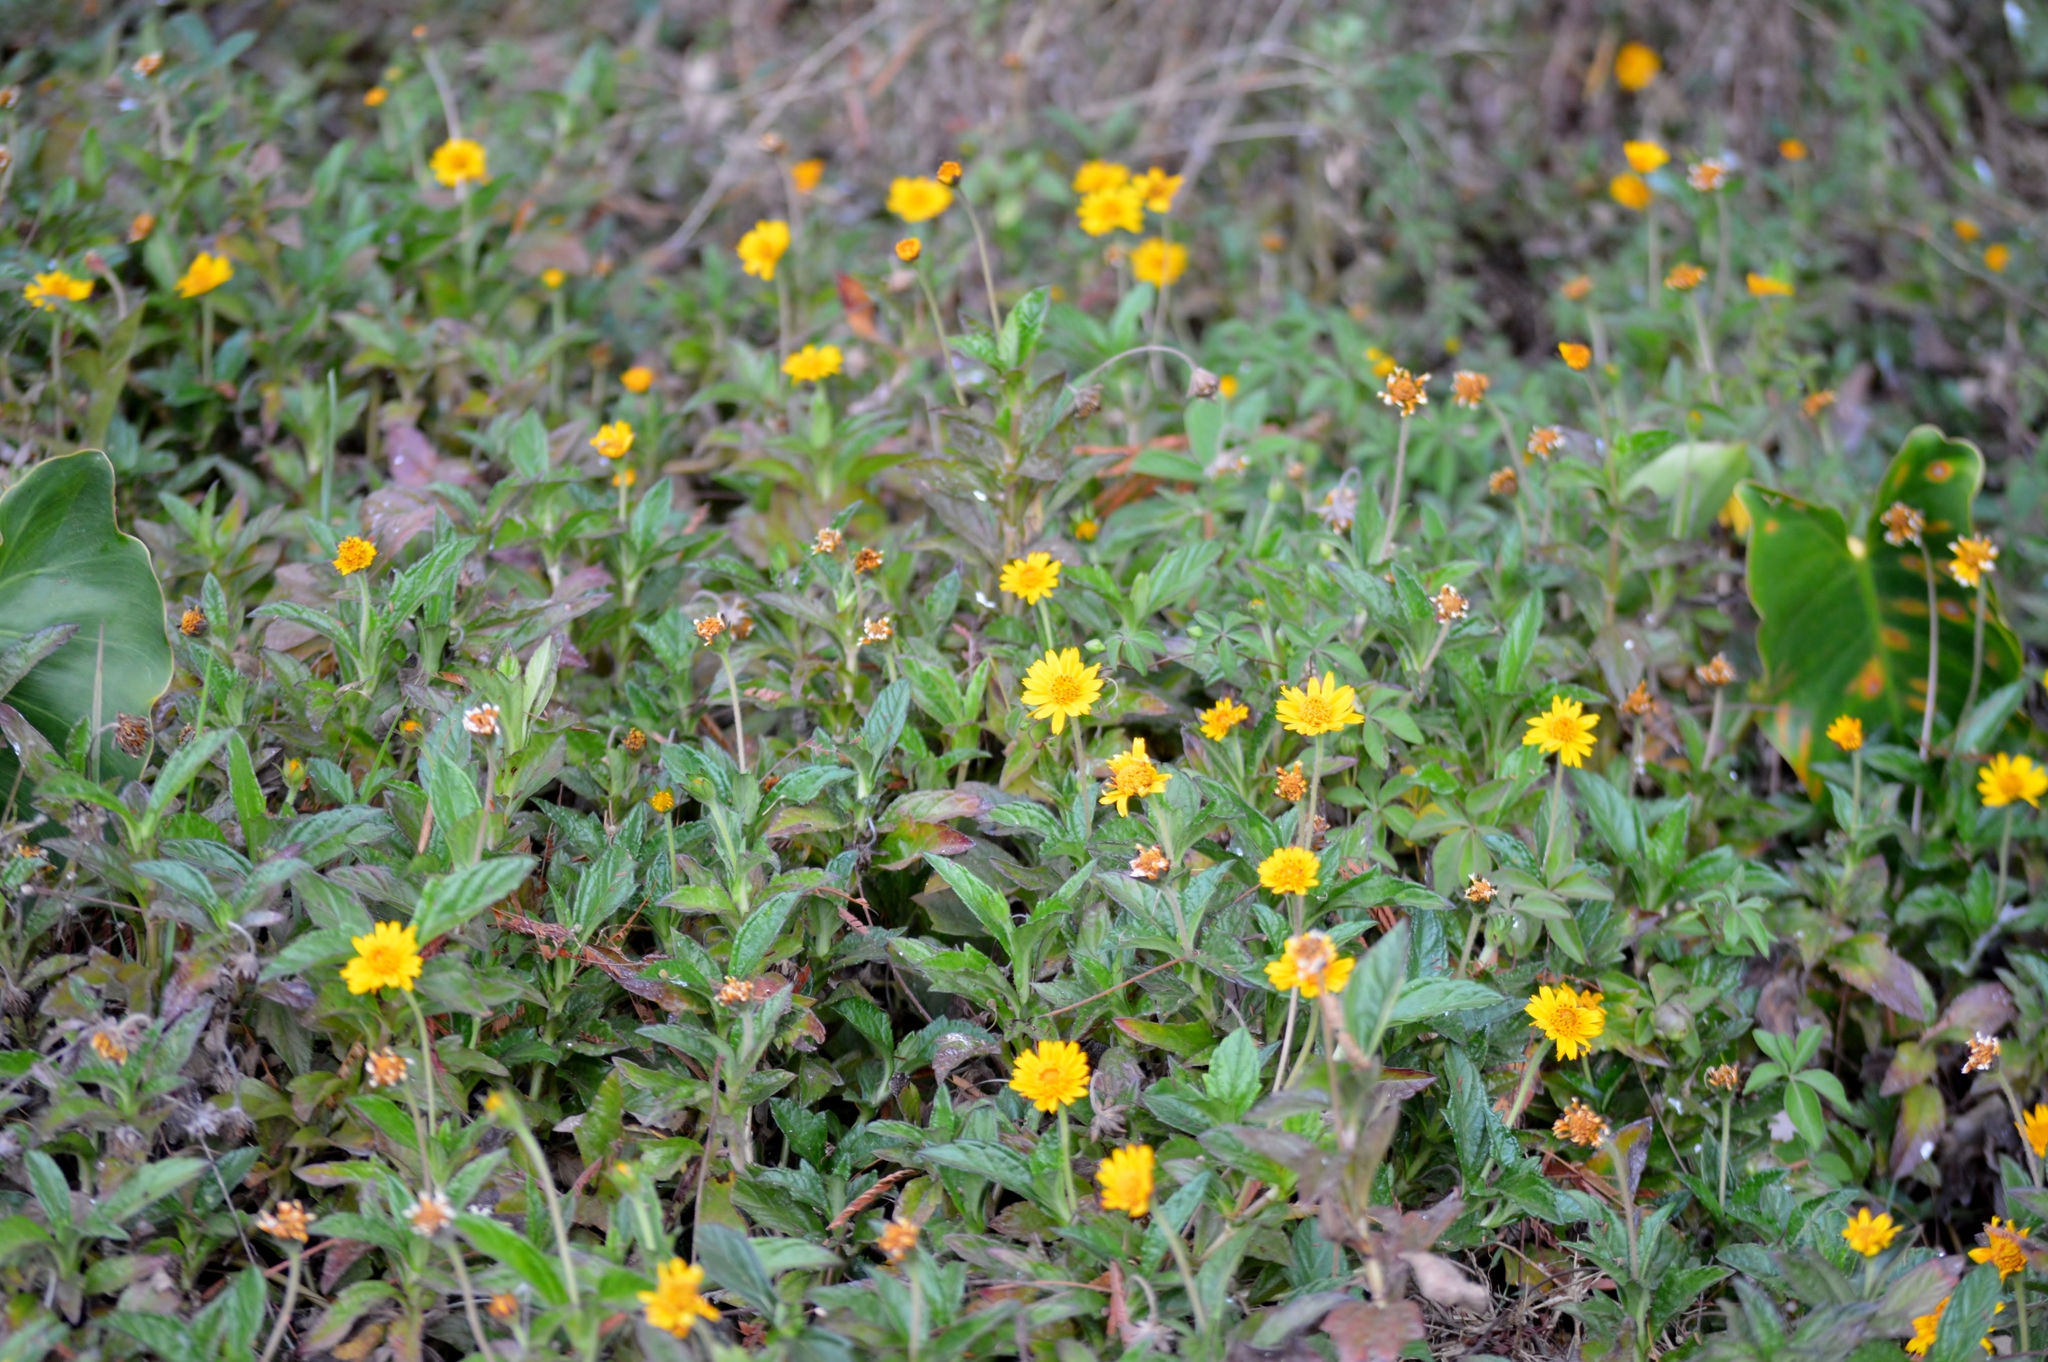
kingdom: Plantae
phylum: Tracheophyta
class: Magnoliopsida
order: Asterales
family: Asteraceae
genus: Sphagneticola
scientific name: Sphagneticola trilobata
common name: Bay biscayne creeping-oxeye
